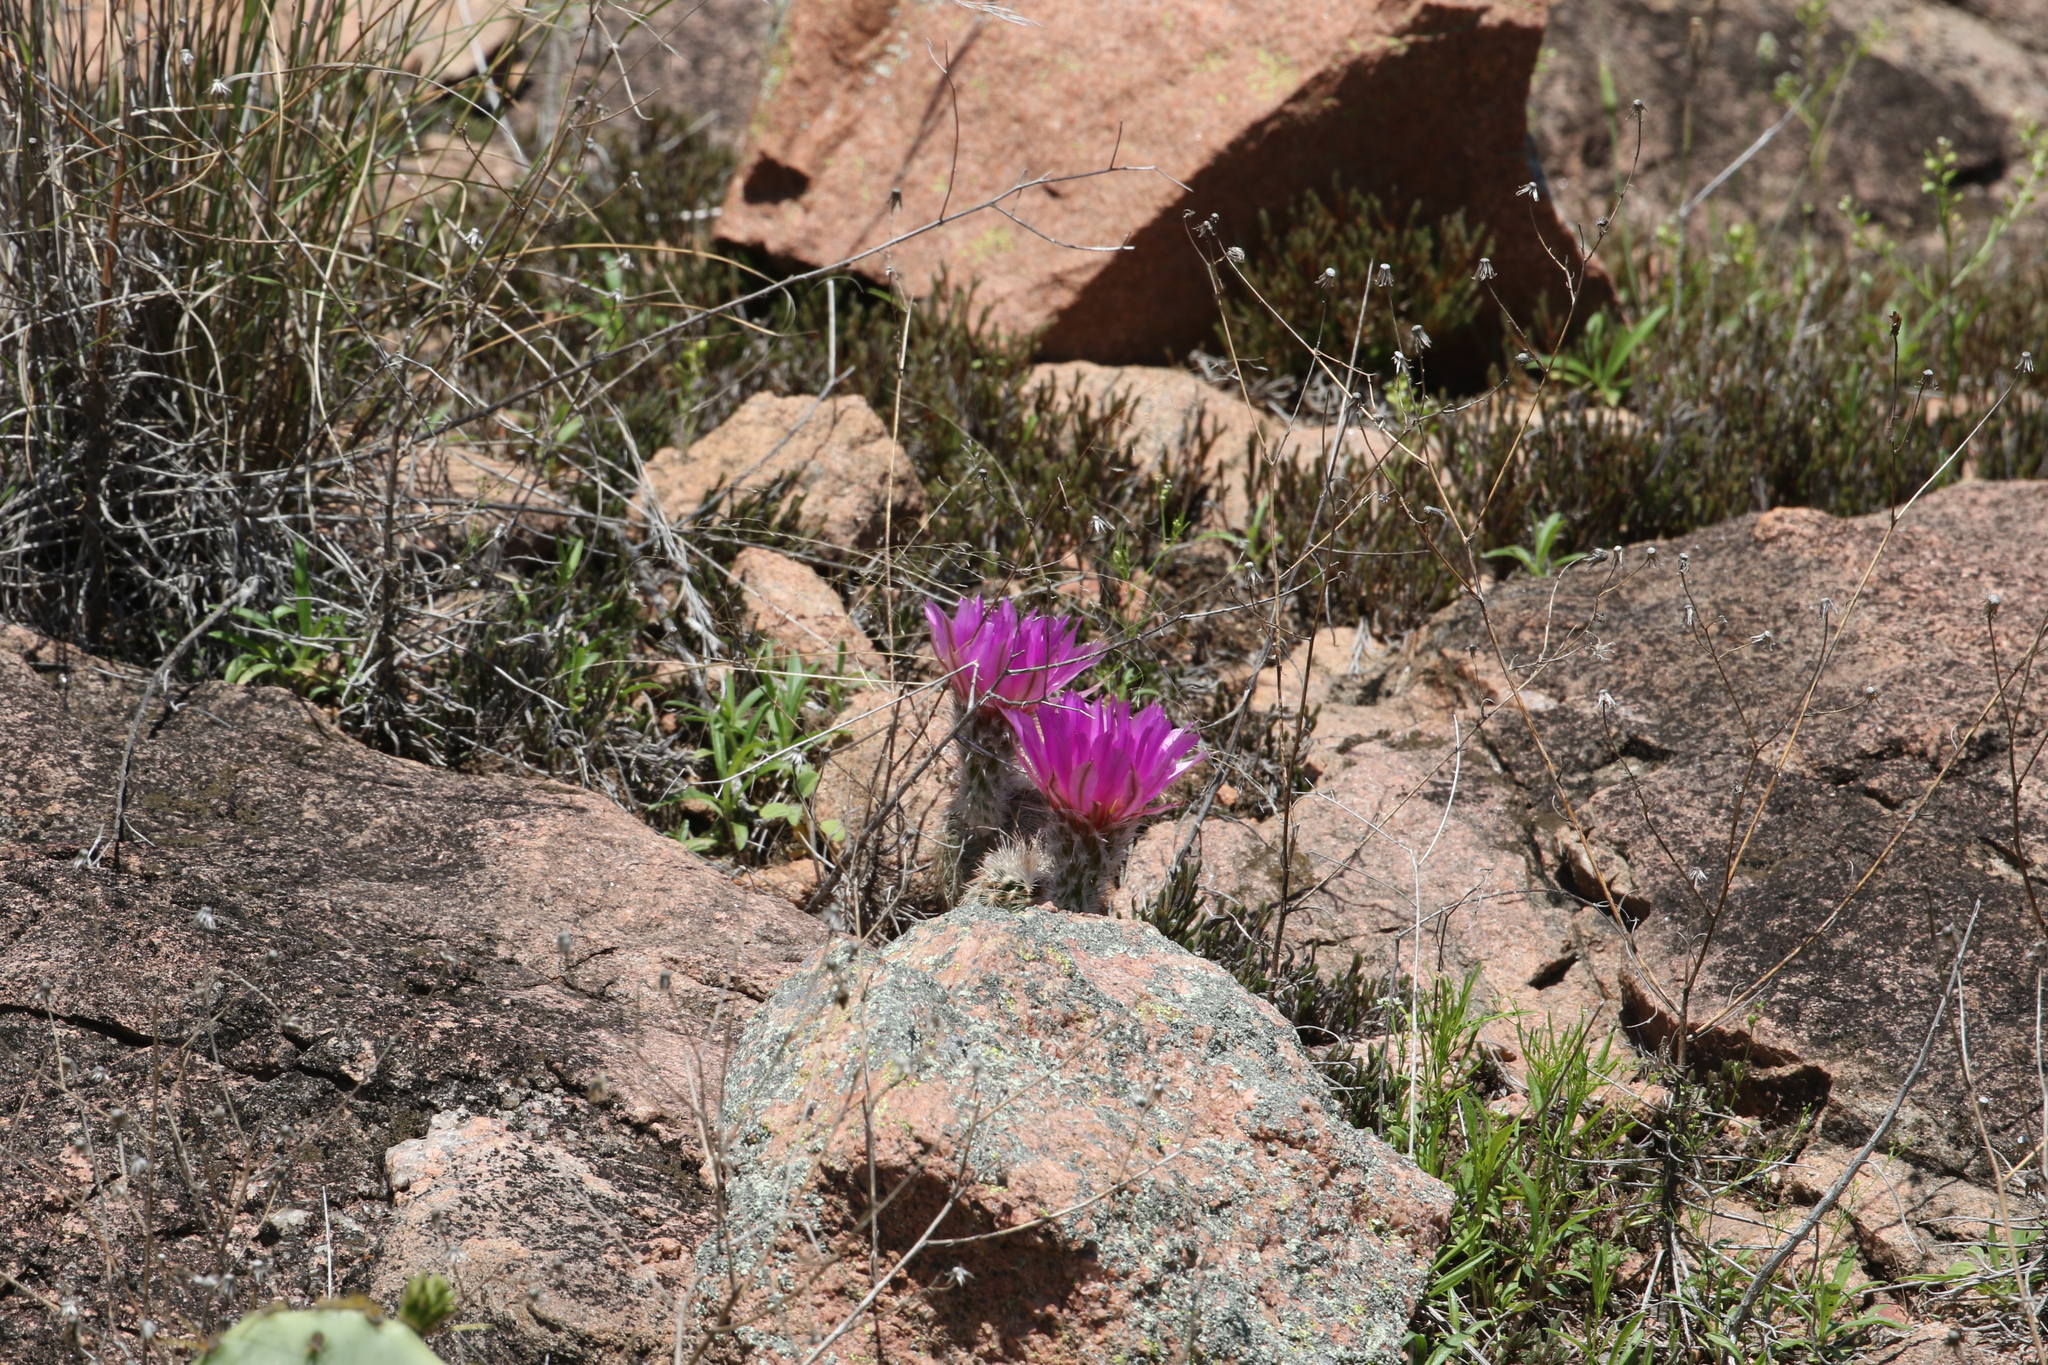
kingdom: Plantae
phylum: Tracheophyta
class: Magnoliopsida
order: Caryophyllales
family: Cactaceae
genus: Echinocereus
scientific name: Echinocereus reichenbachii
